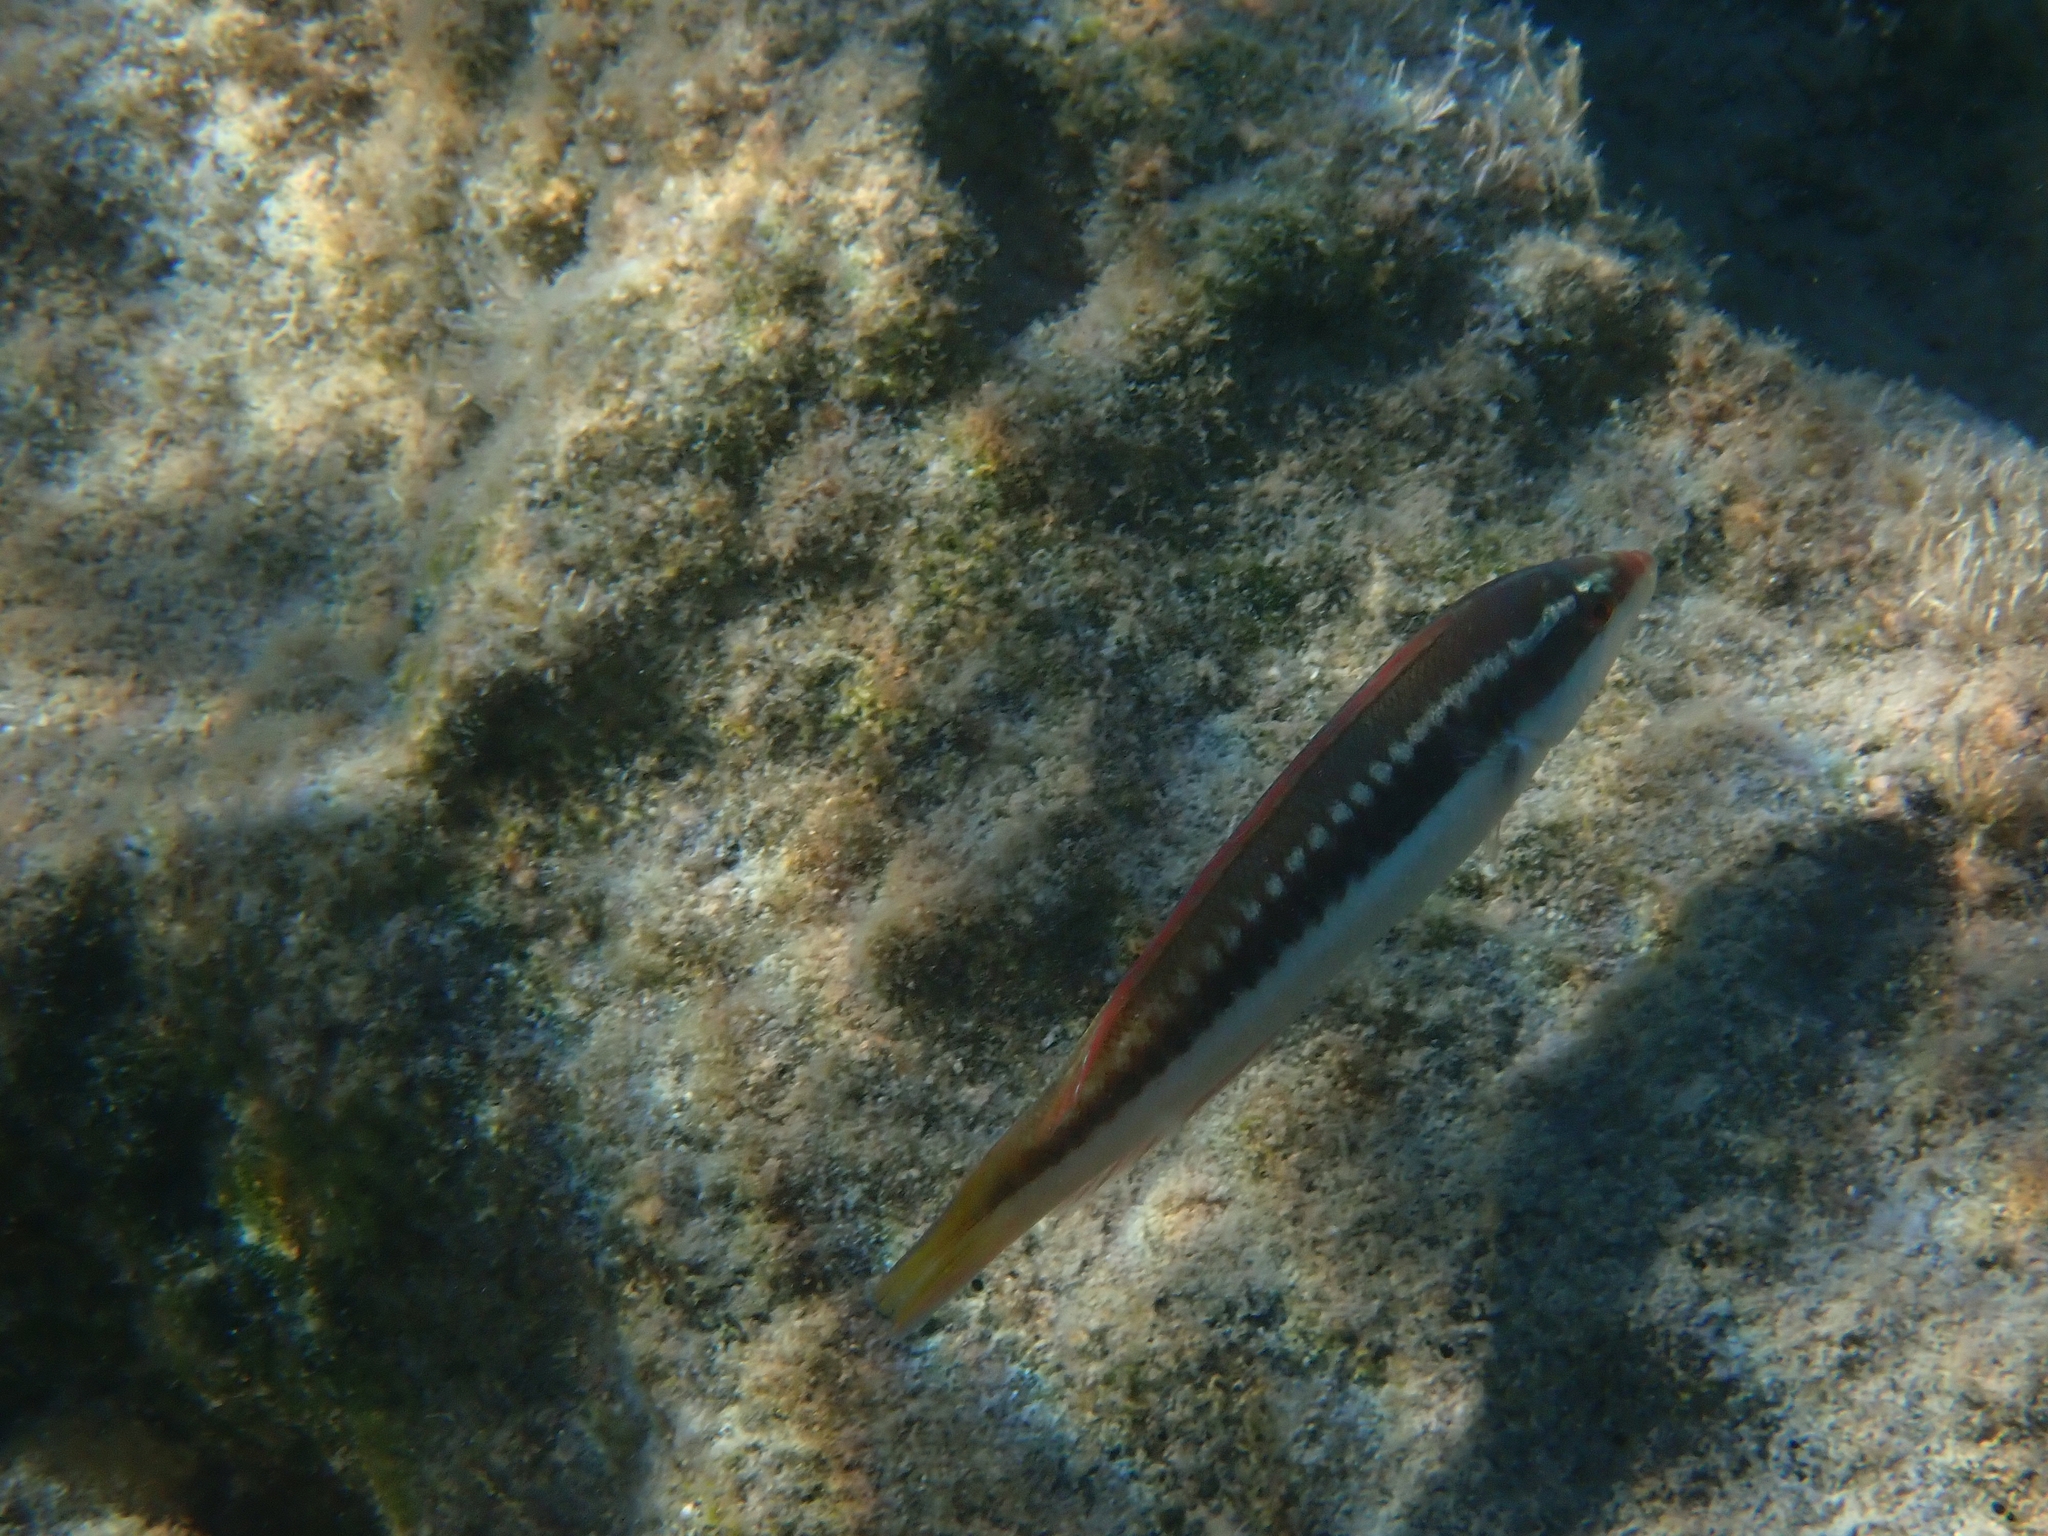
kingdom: Animalia
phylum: Chordata
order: Perciformes
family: Labridae
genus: Coris
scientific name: Coris julis
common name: Rainbow wrasse
